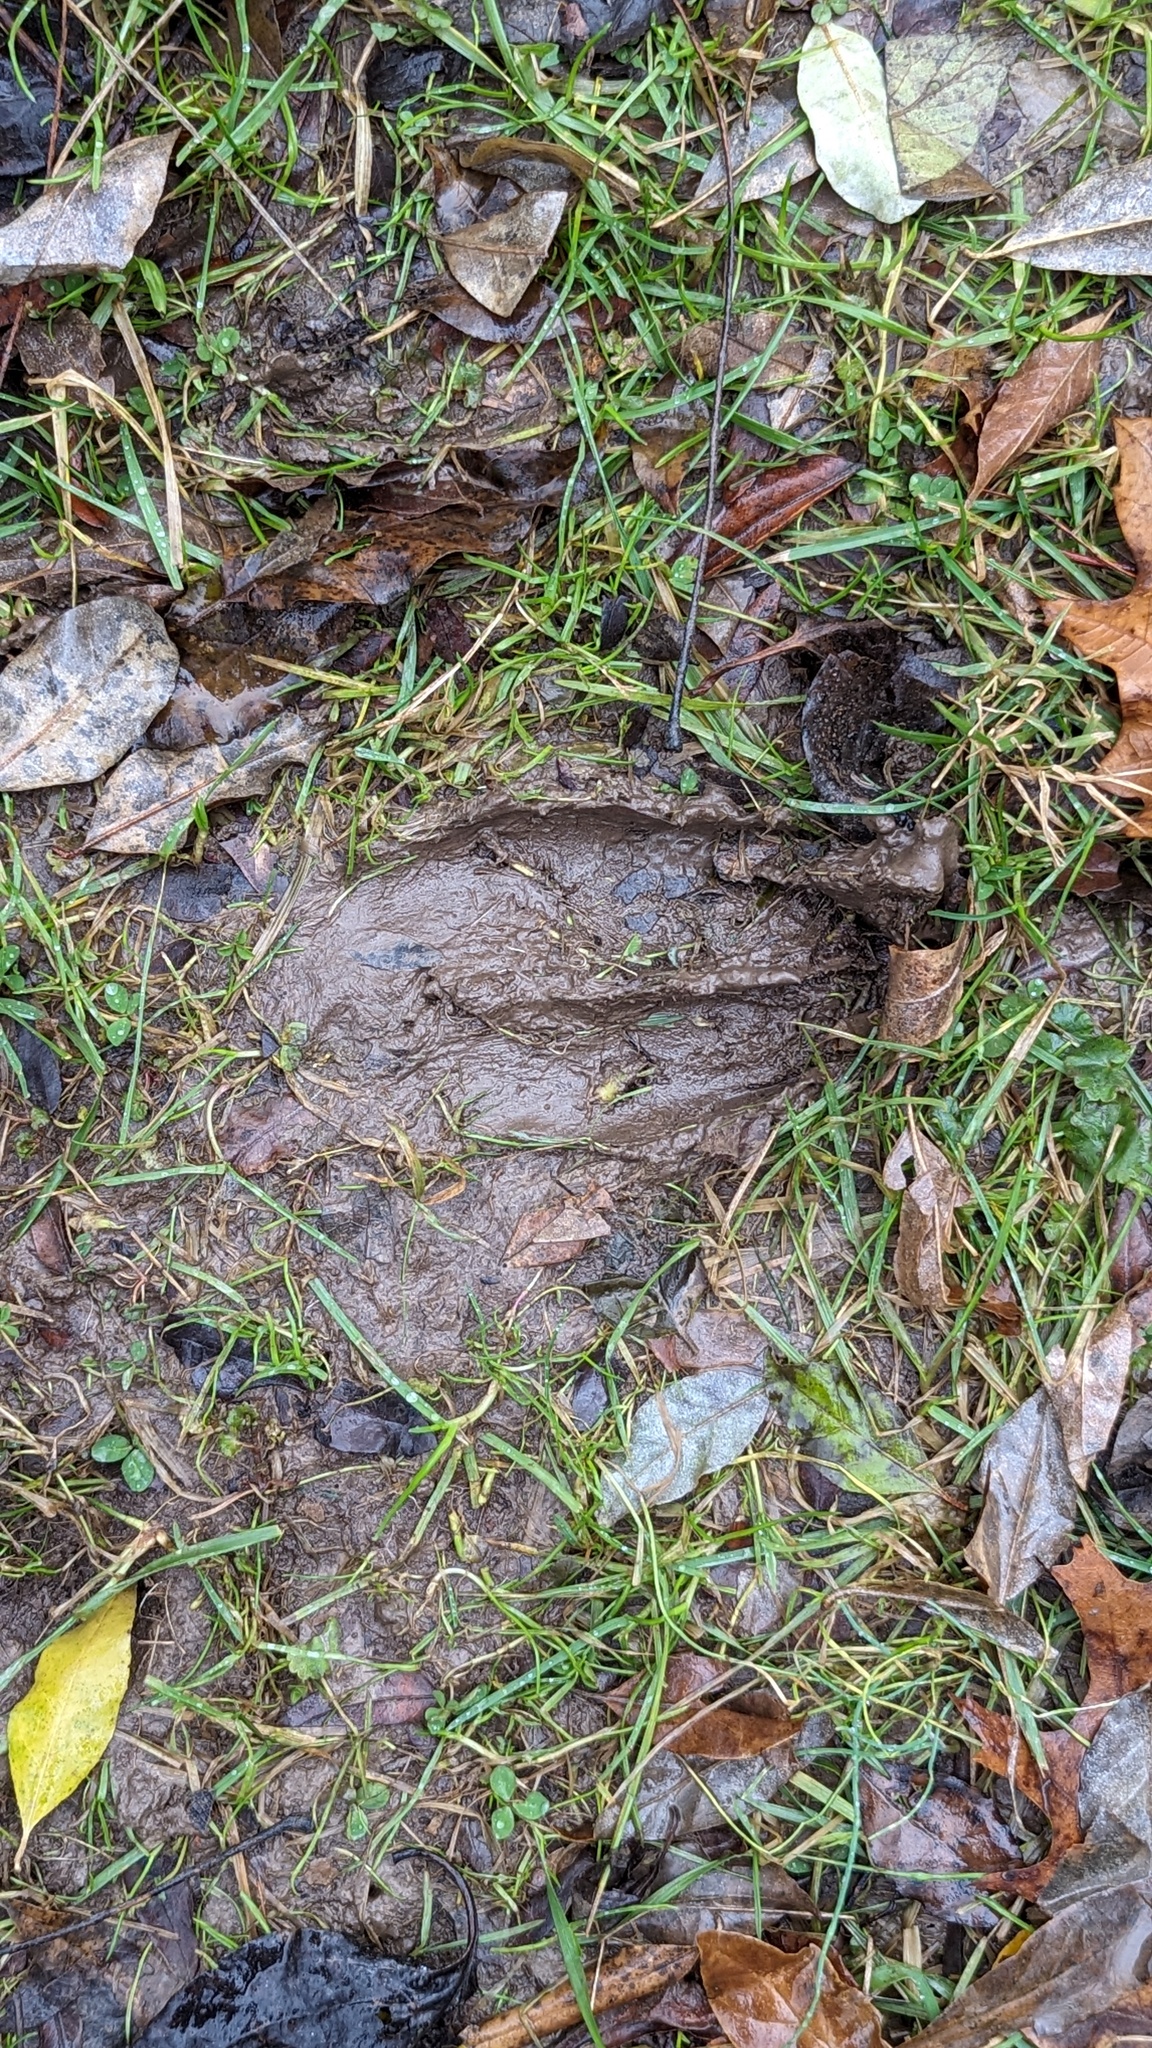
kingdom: Animalia
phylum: Chordata
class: Mammalia
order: Artiodactyla
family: Cervidae
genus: Odocoileus
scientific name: Odocoileus virginianus
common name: White-tailed deer
